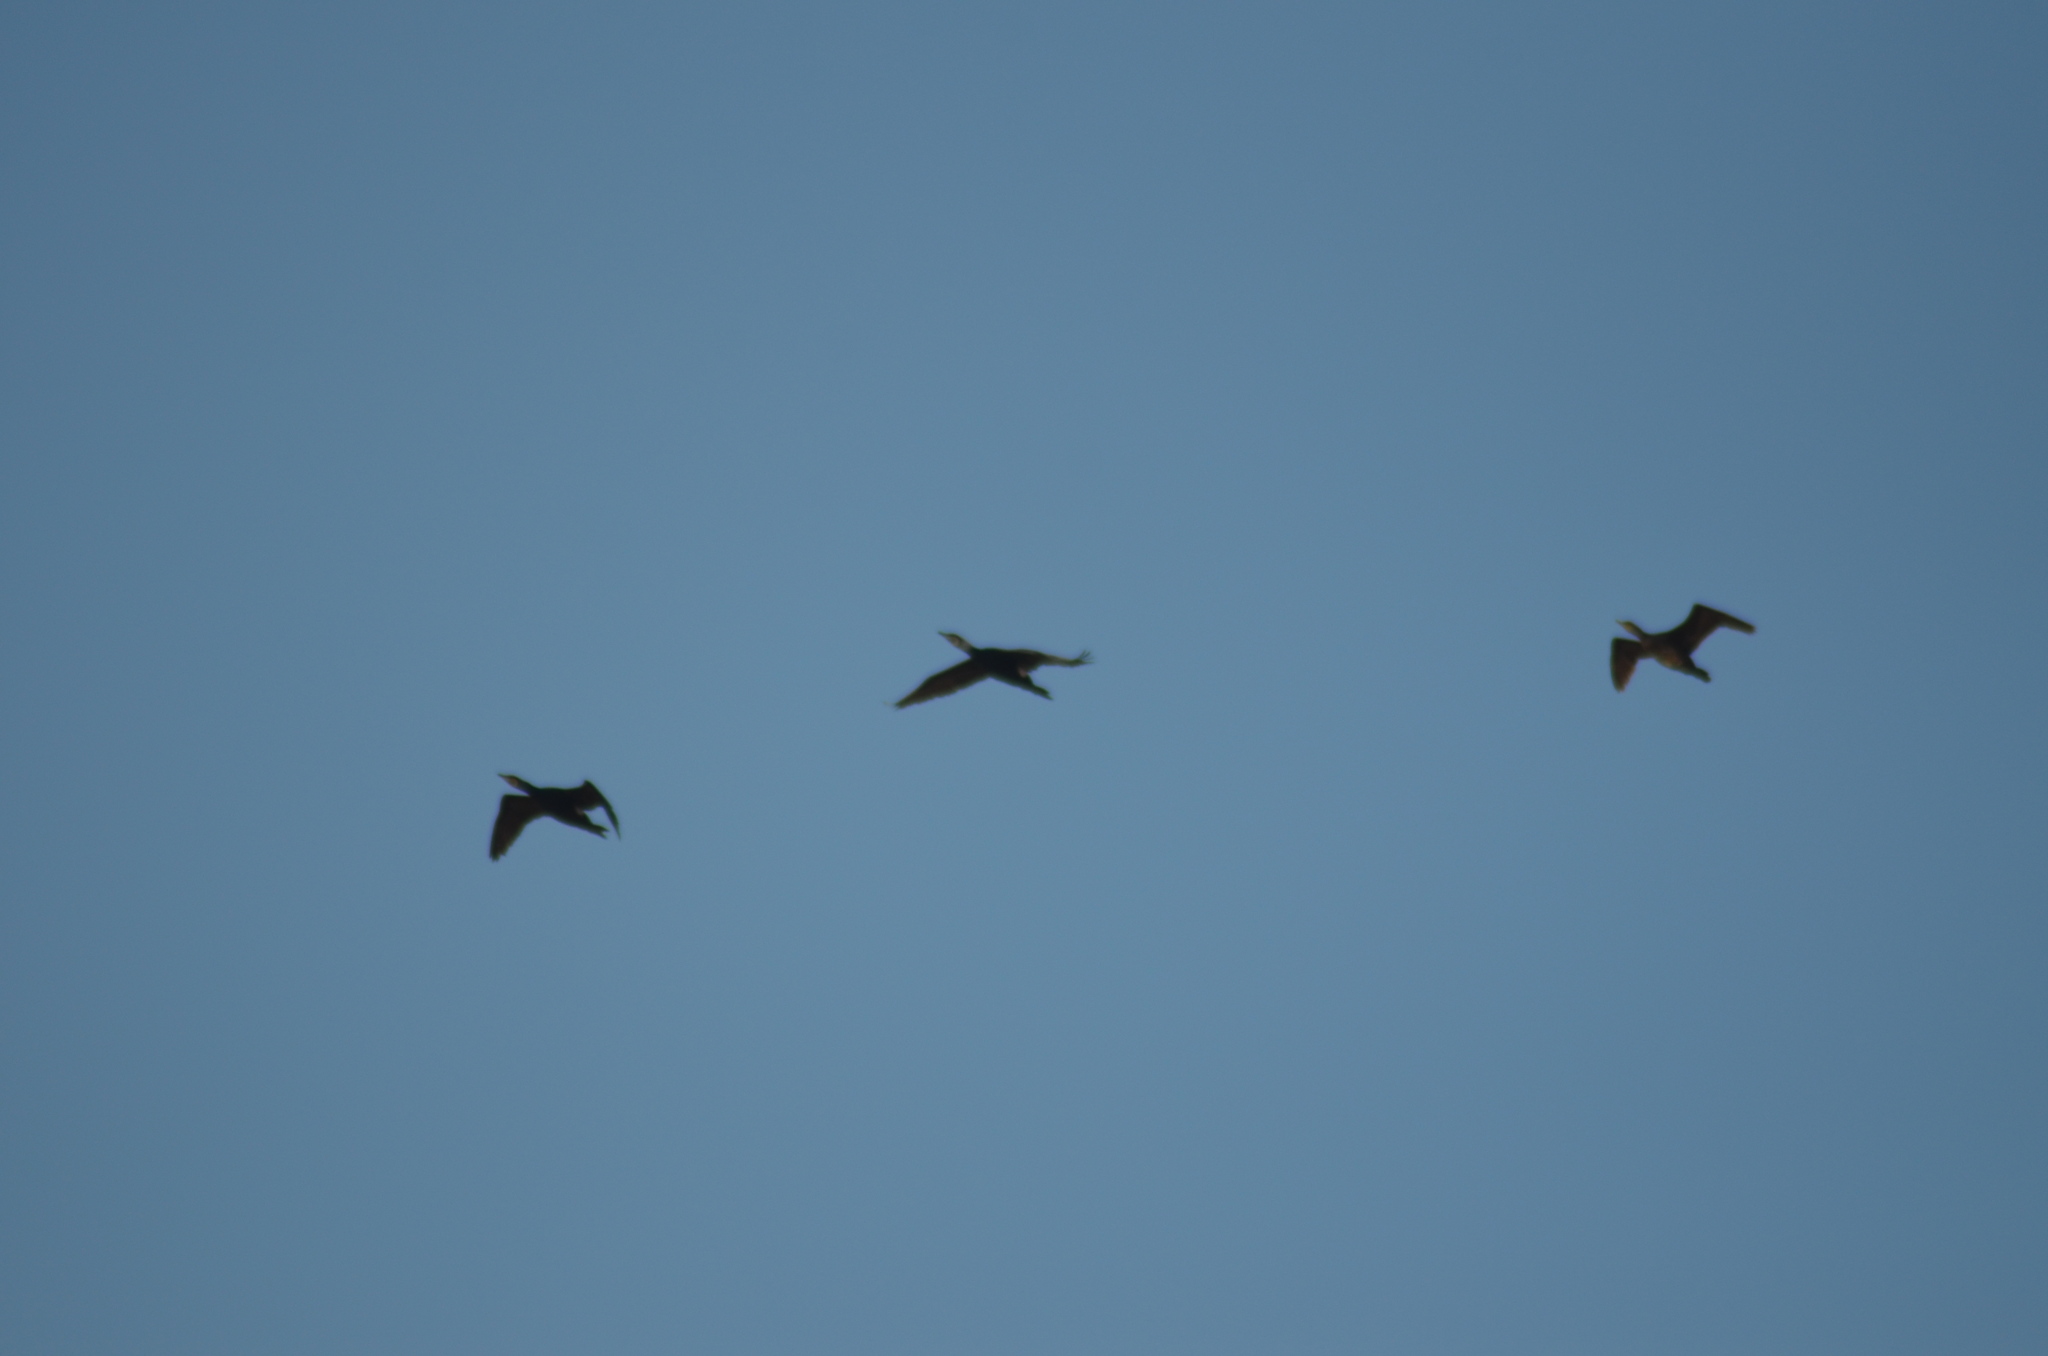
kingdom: Animalia
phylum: Chordata
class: Aves
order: Suliformes
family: Phalacrocoracidae
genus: Phalacrocorax
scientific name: Phalacrocorax carbo
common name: Great cormorant
